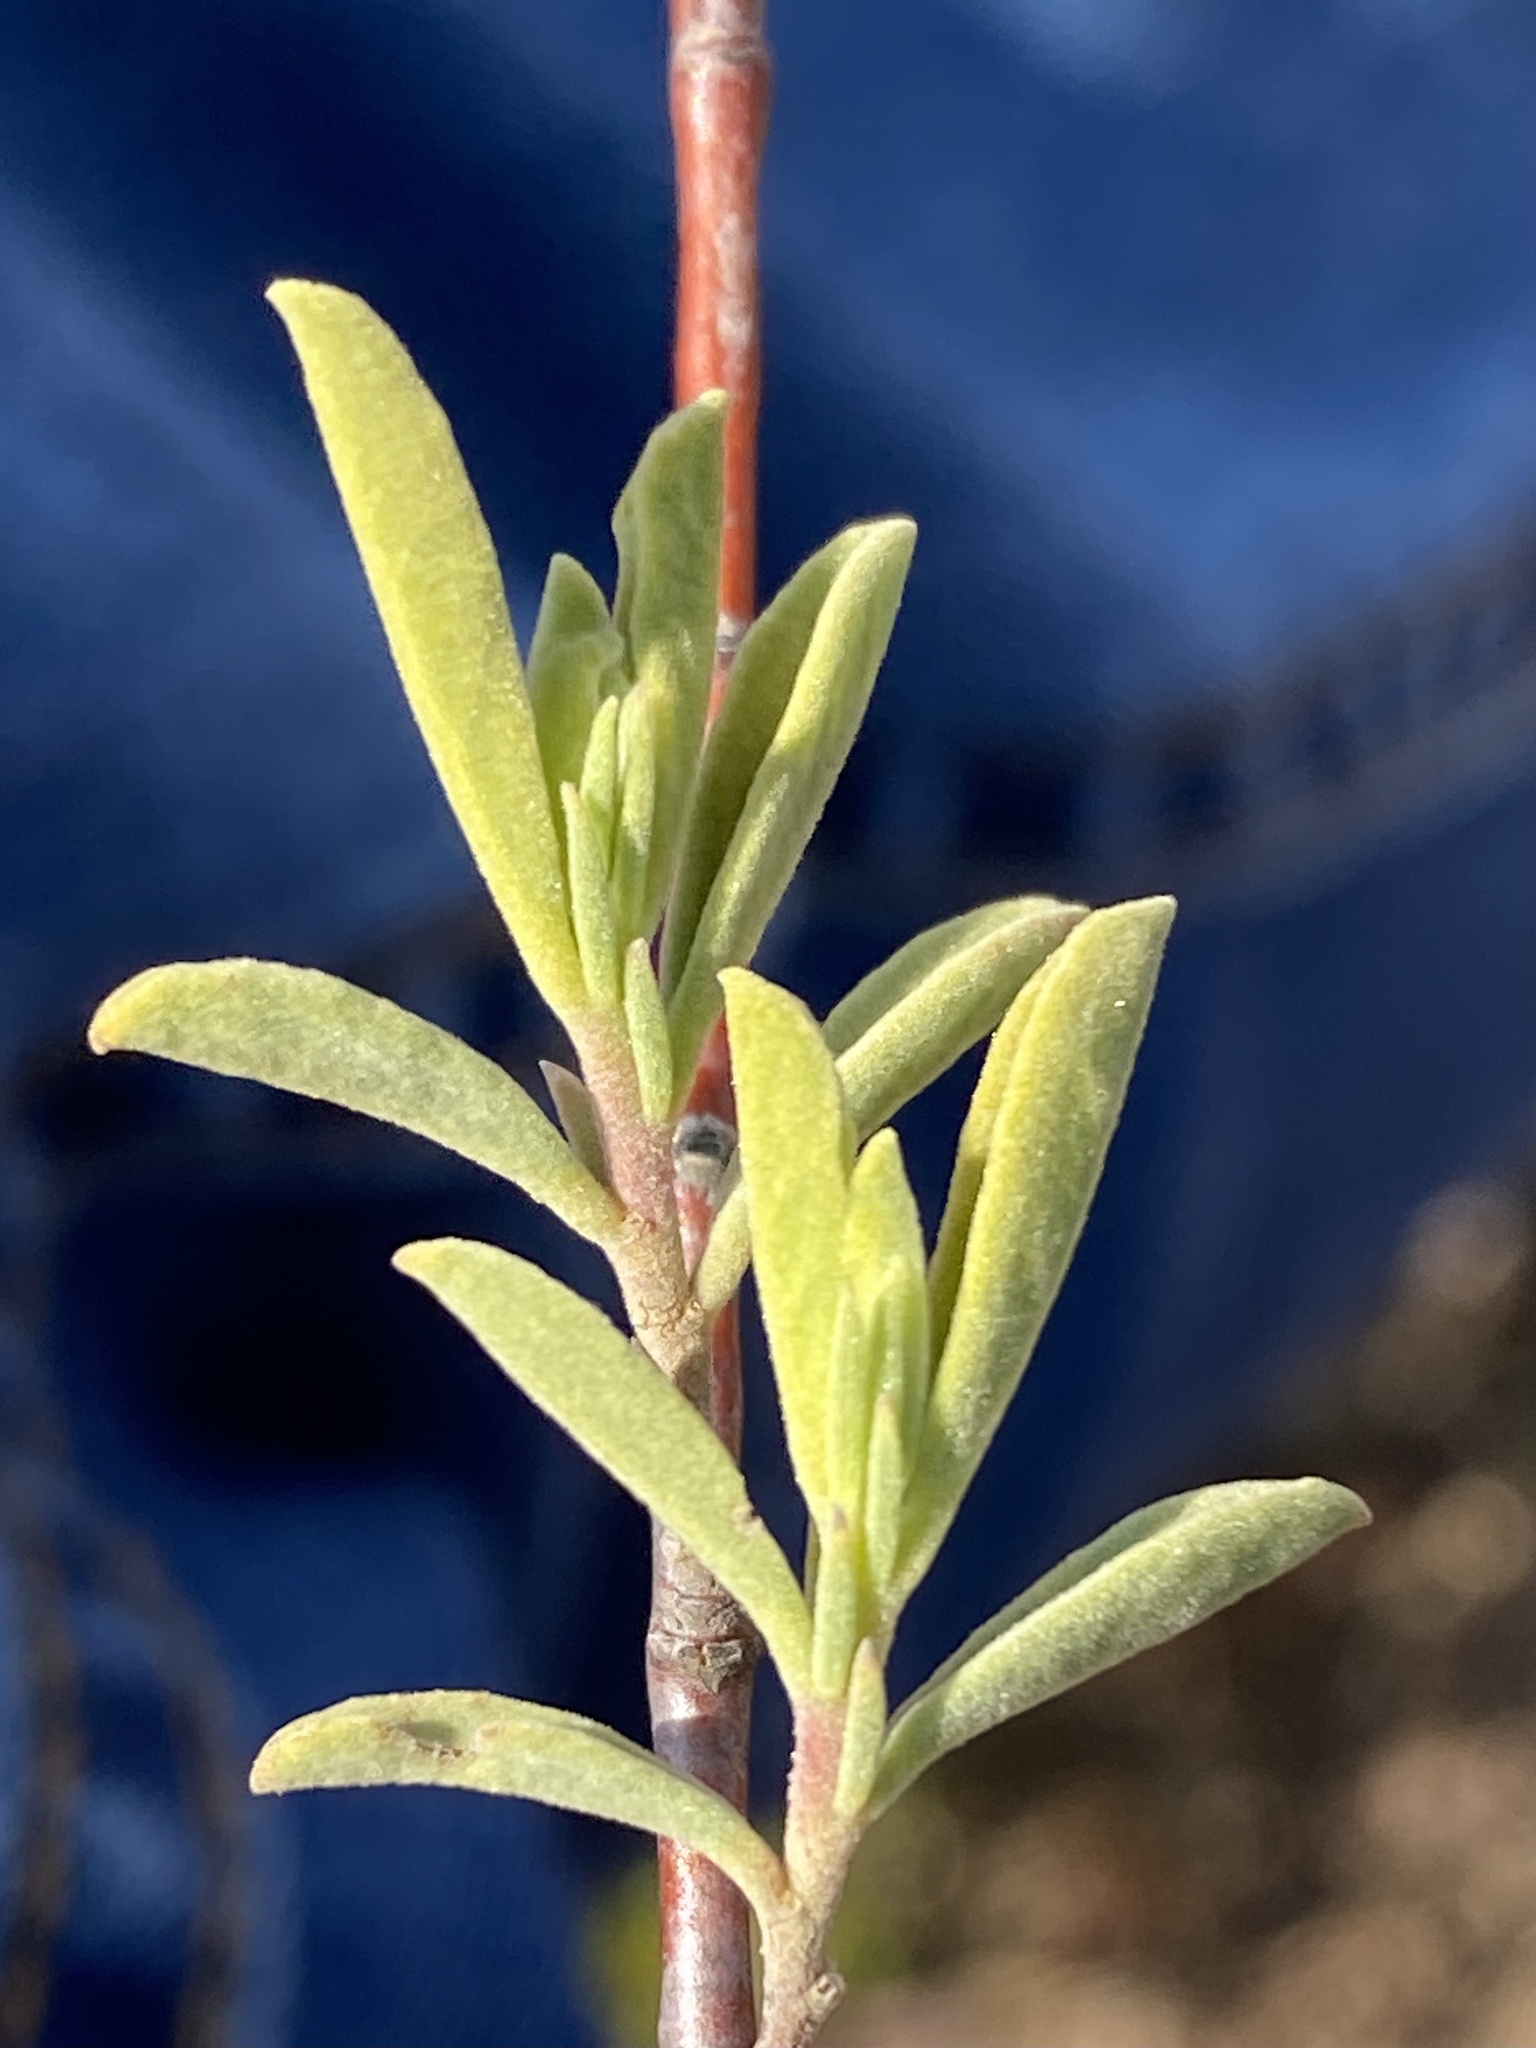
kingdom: Plantae
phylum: Tracheophyta
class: Magnoliopsida
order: Malvales
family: Malvaceae
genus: Hermannia
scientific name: Hermannia odorata
